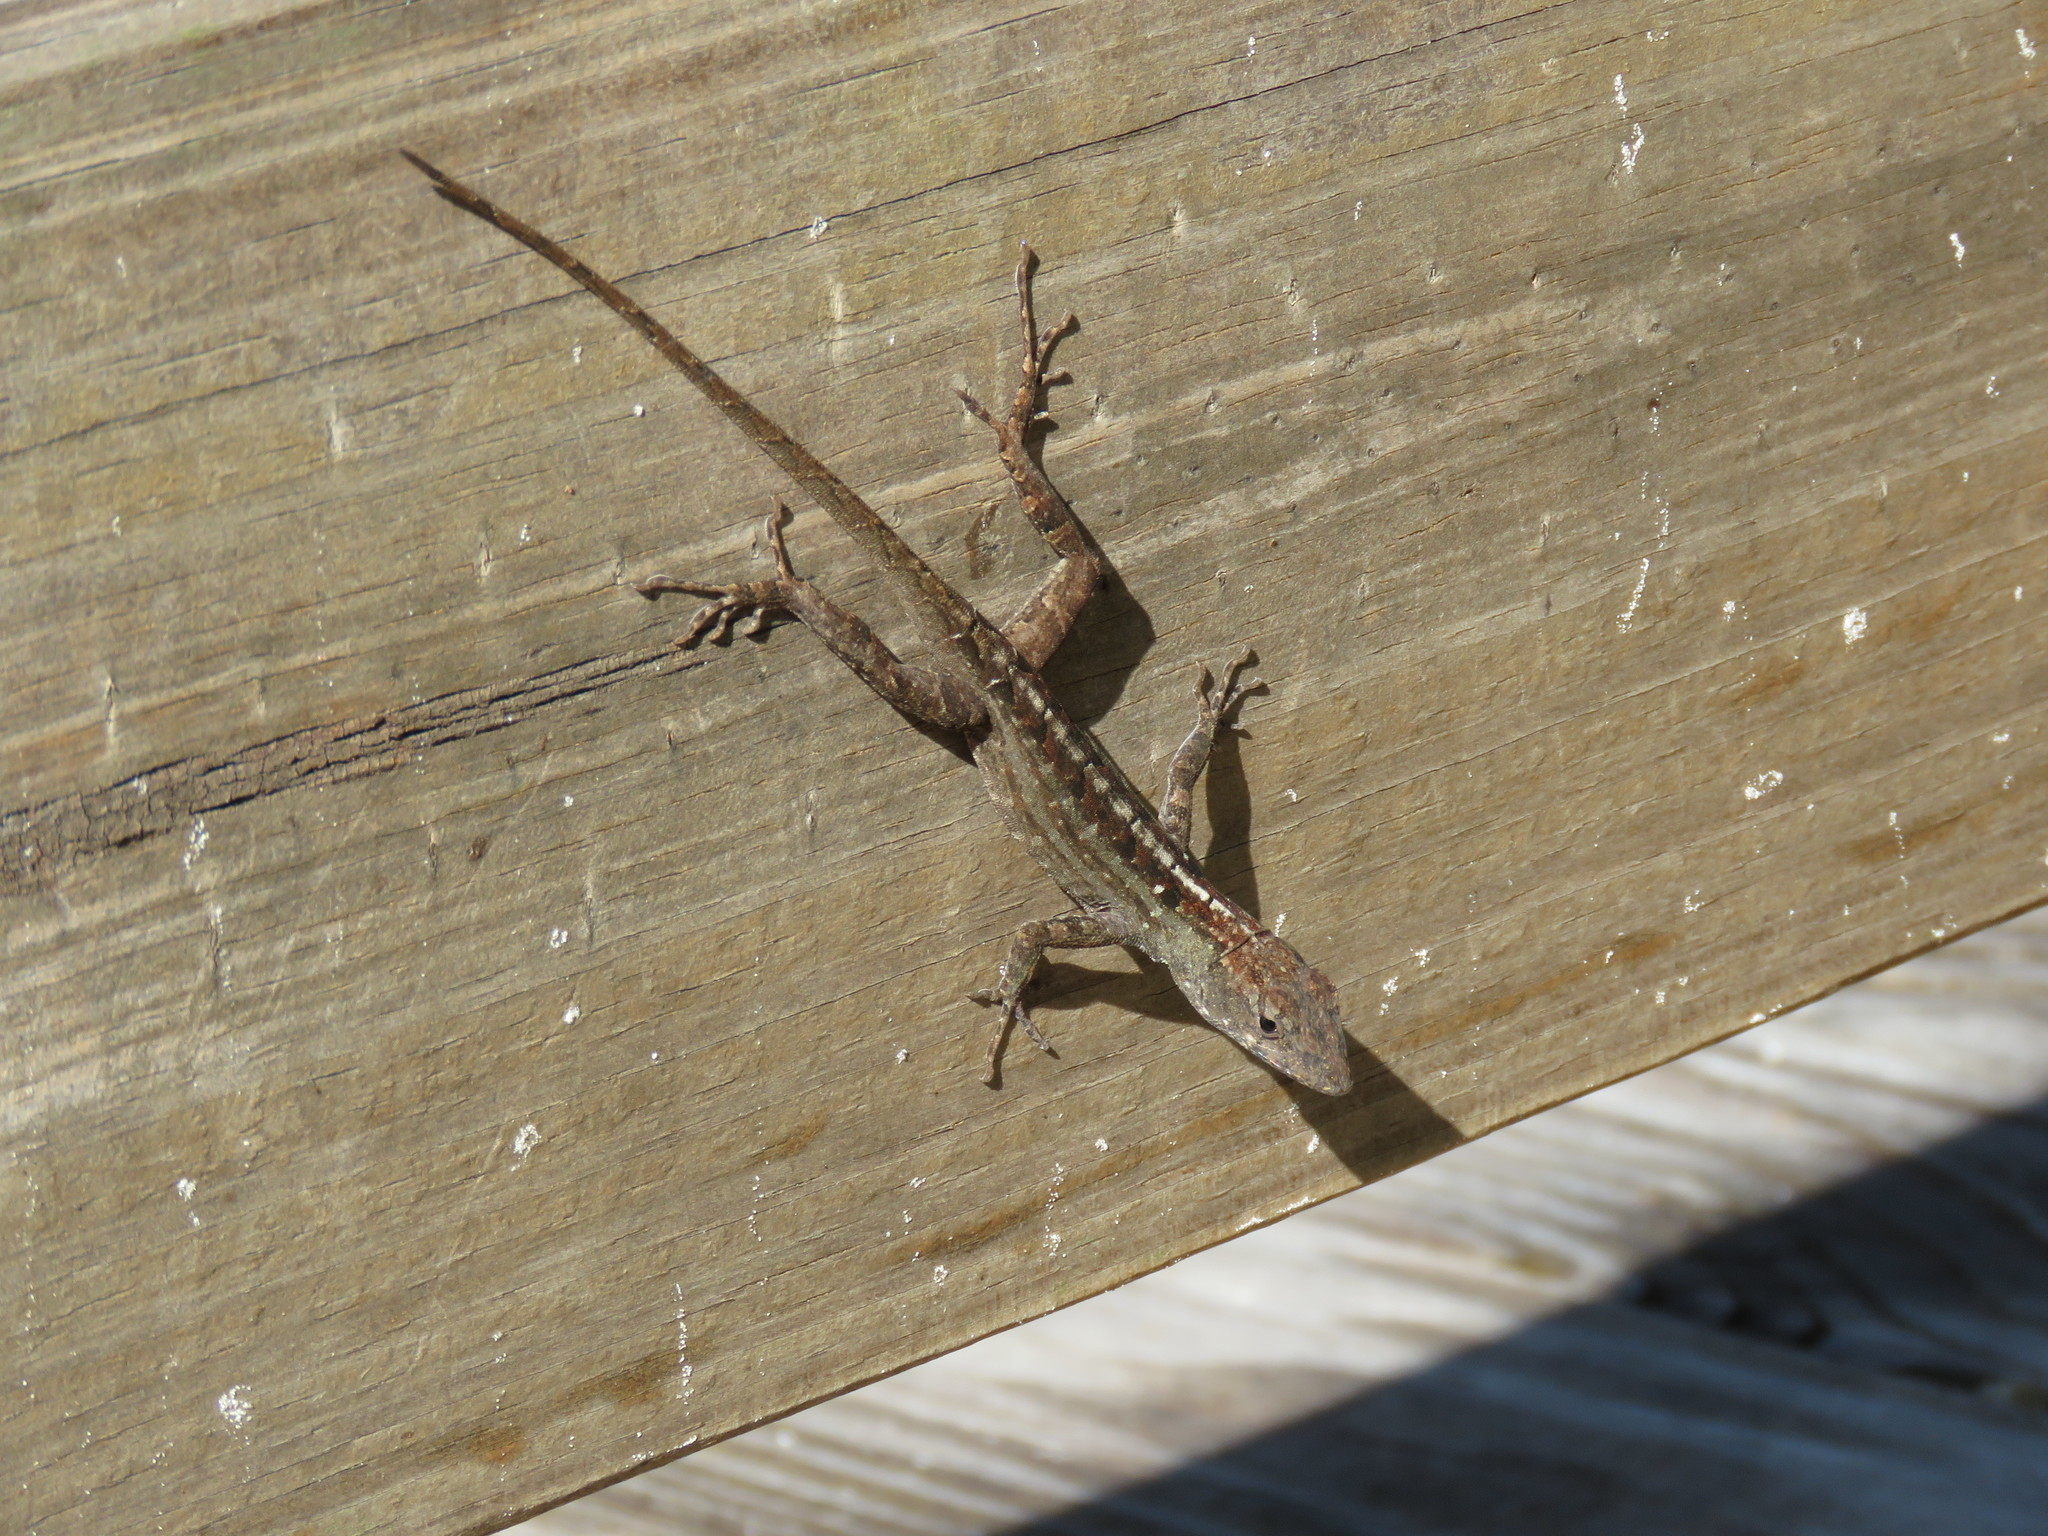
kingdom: Animalia
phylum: Chordata
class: Squamata
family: Dactyloidae
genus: Anolis
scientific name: Anolis sagrei
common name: Brown anole
